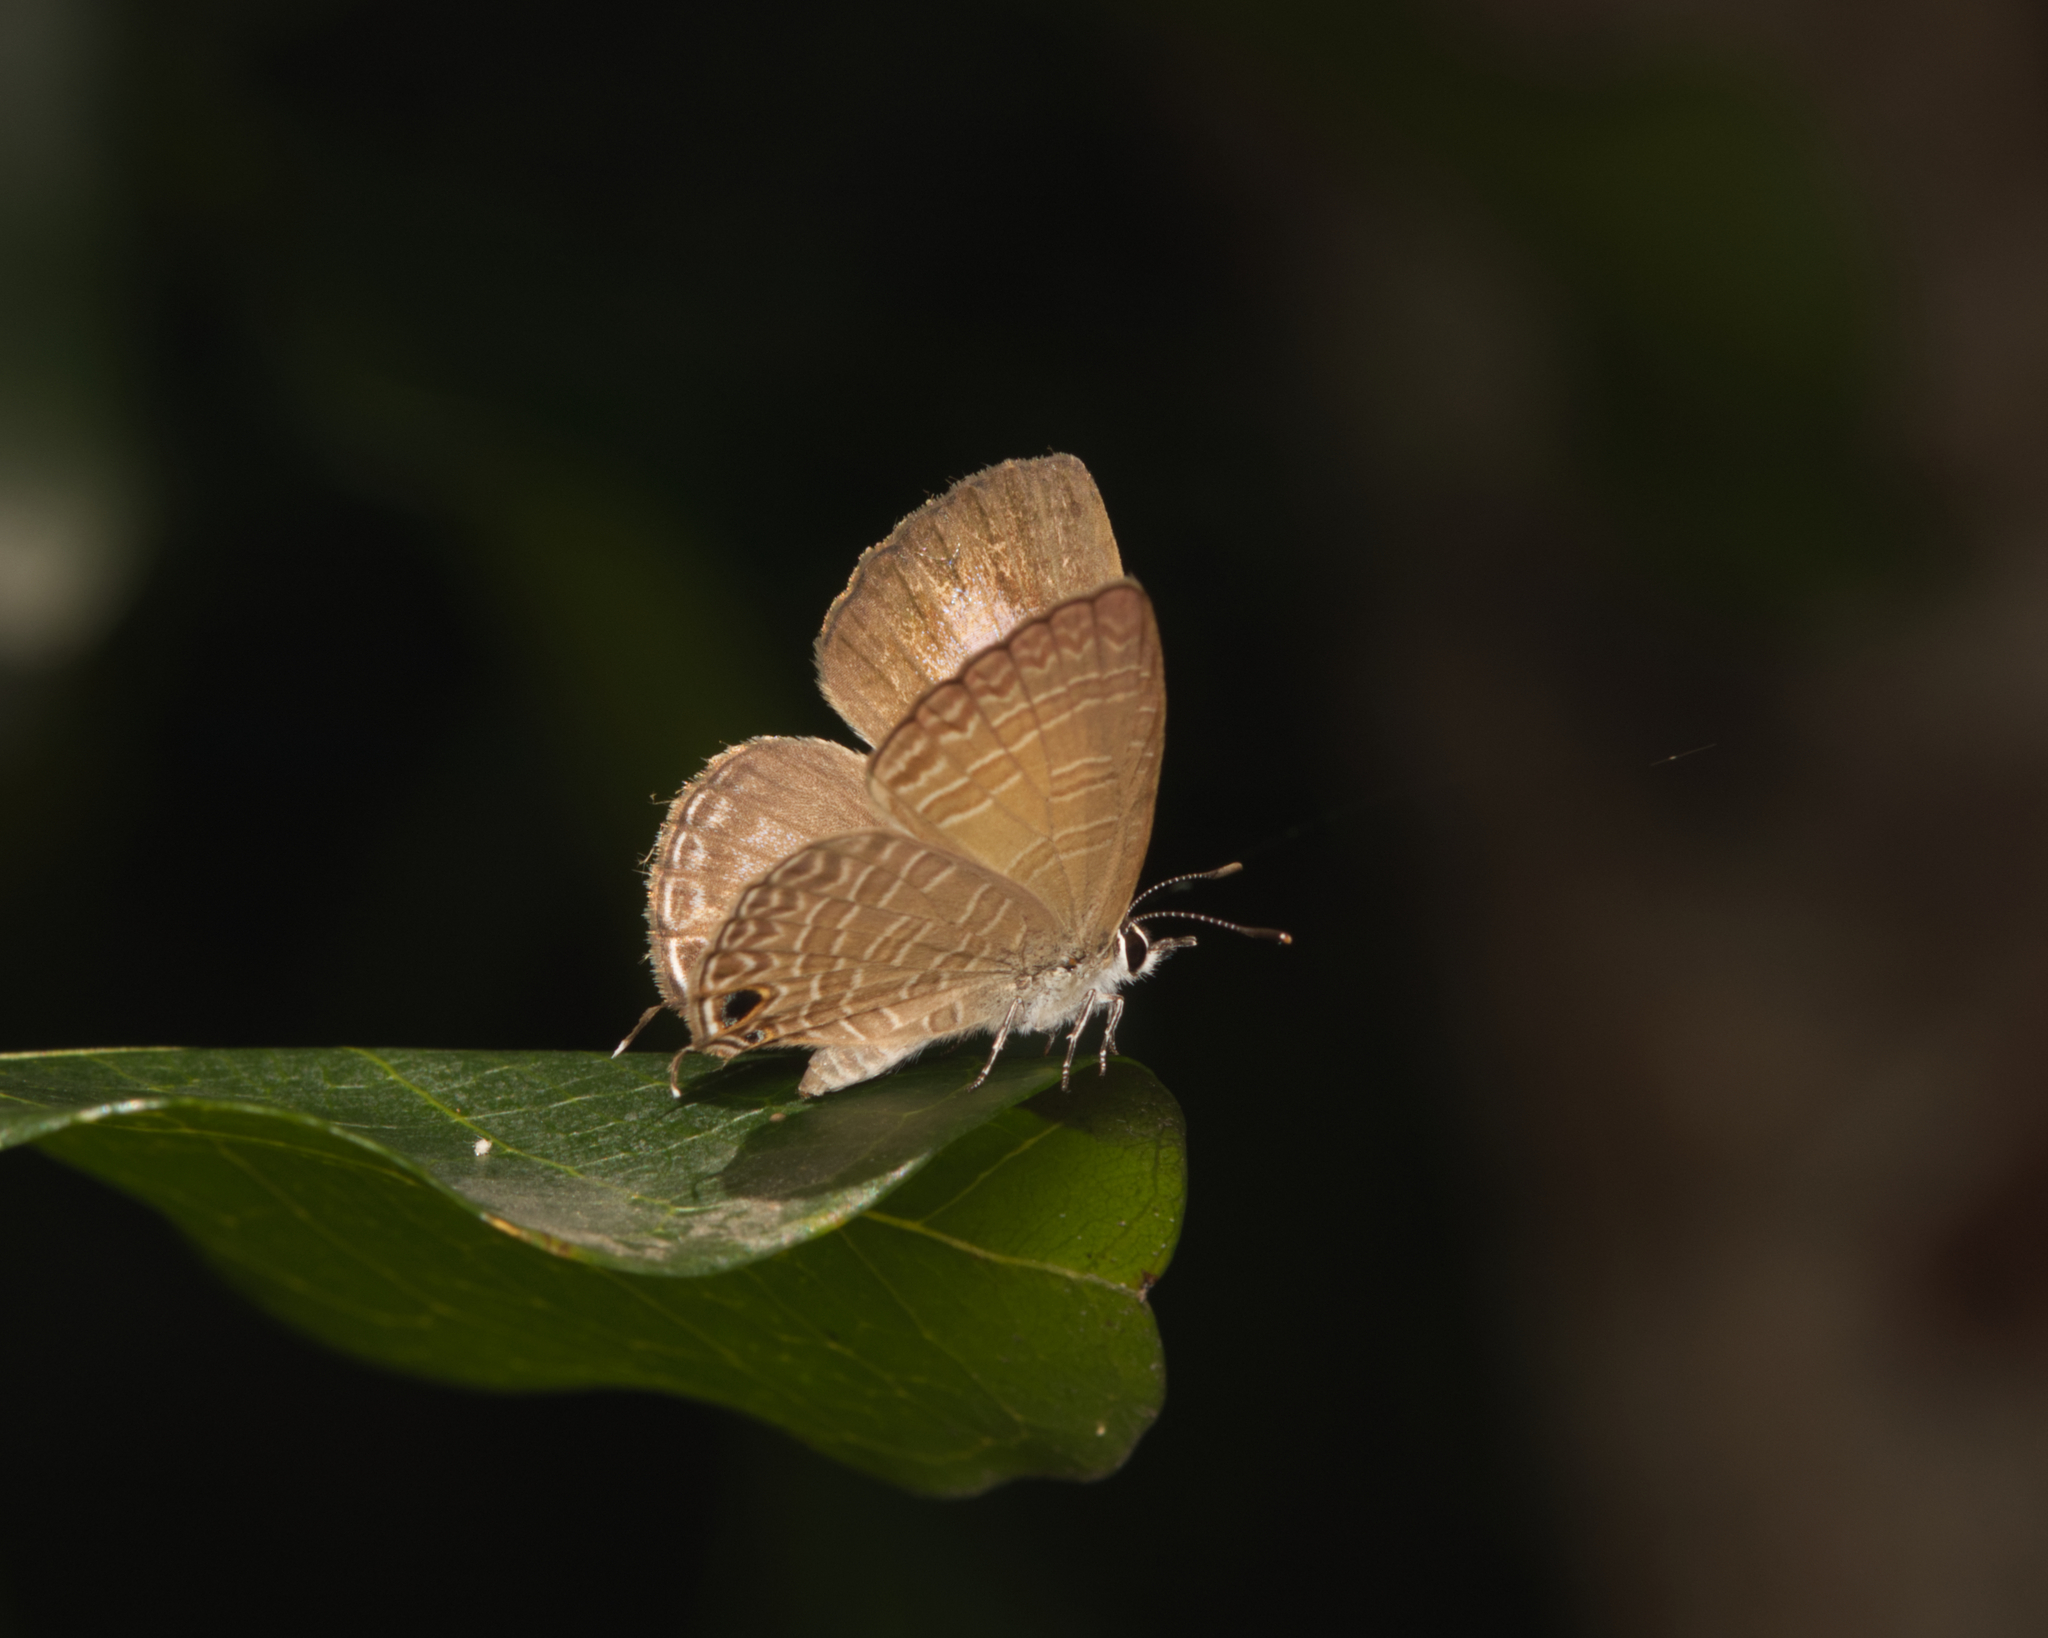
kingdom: Animalia
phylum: Arthropoda
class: Insecta
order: Lepidoptera
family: Lycaenidae
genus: Nacaduba
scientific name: Nacaduba berenice
